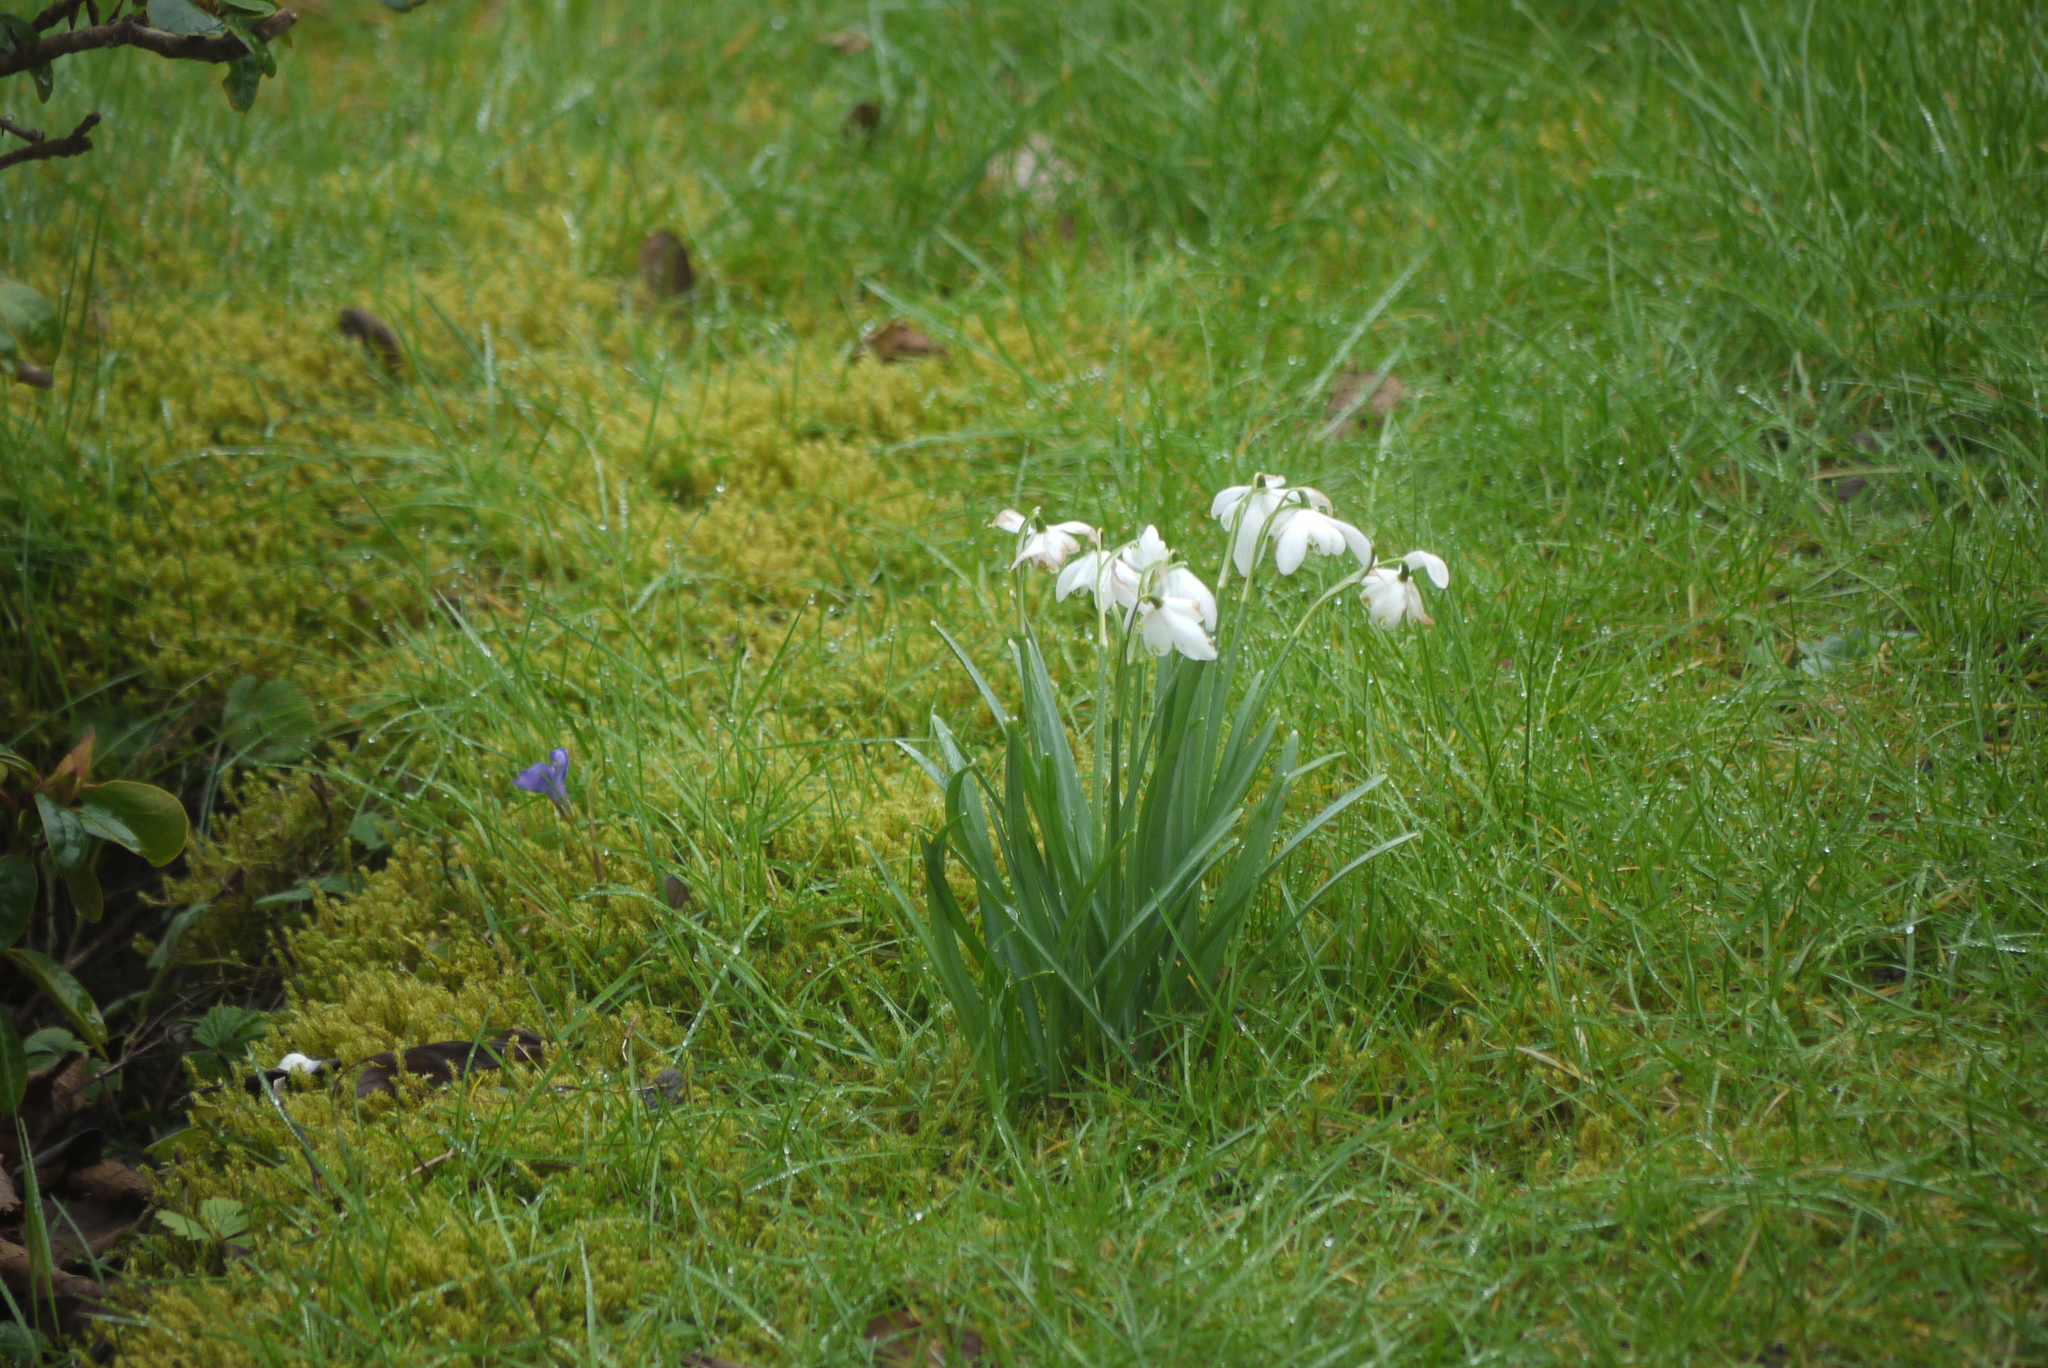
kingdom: Plantae
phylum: Tracheophyta
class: Liliopsida
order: Asparagales
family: Amaryllidaceae
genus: Galanthus
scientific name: Galanthus nivalis
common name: Snowdrop
